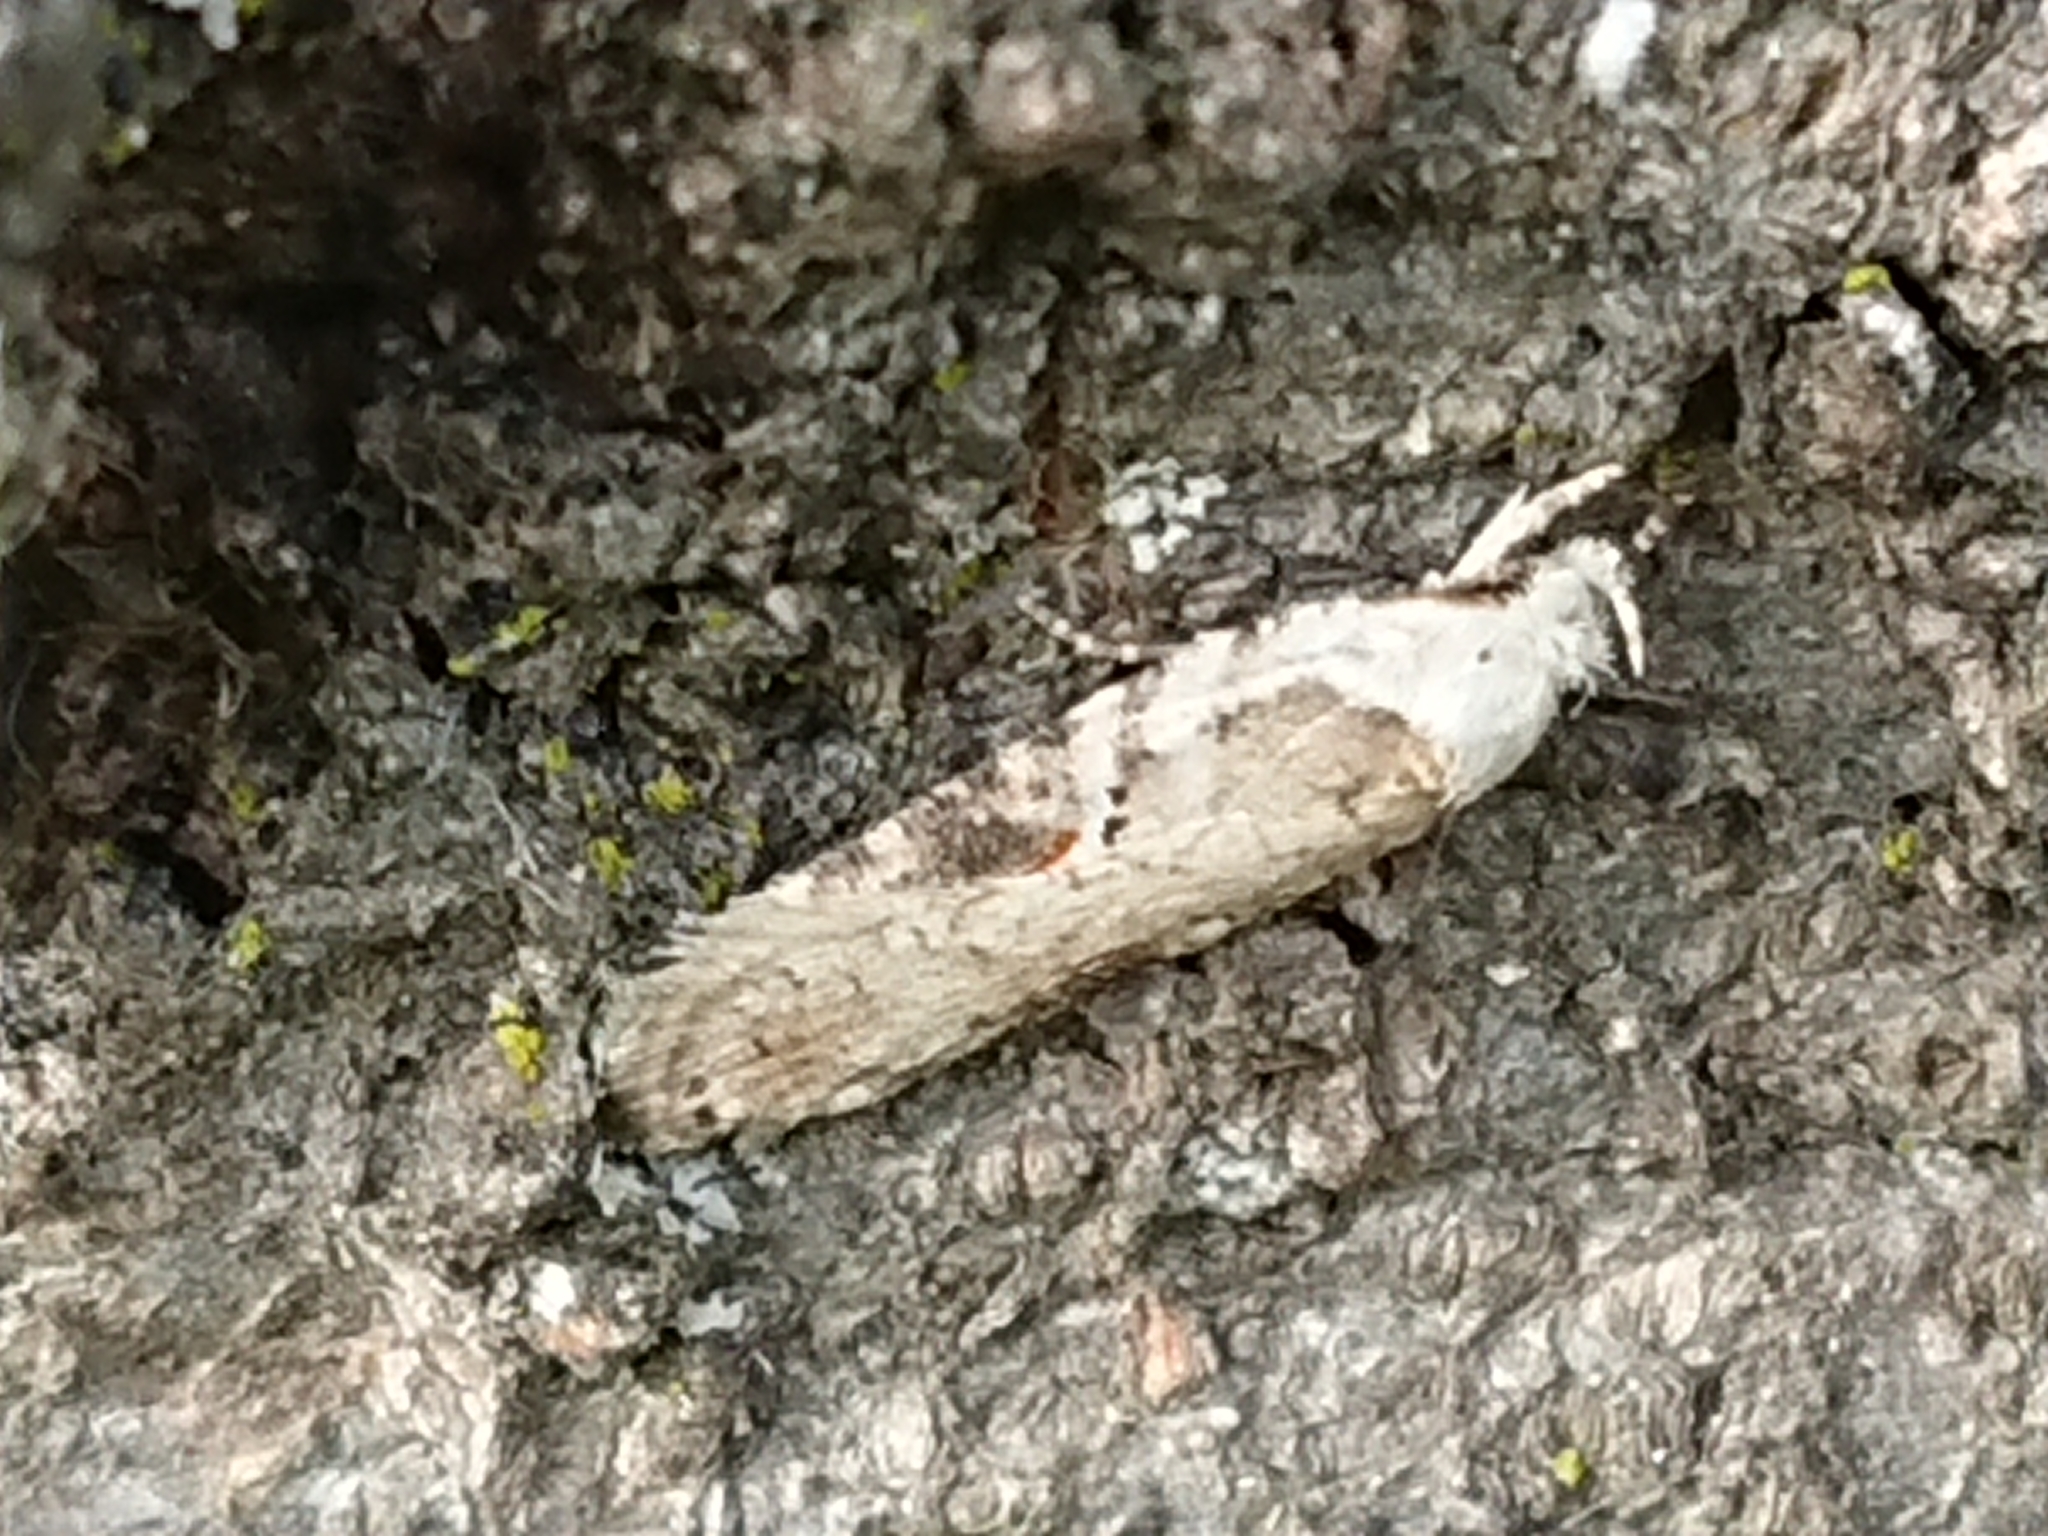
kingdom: Animalia
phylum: Arthropoda
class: Insecta
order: Lepidoptera
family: Depressariidae
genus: Agonopterix
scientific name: Agonopterix alstroemeriana
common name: Moth
